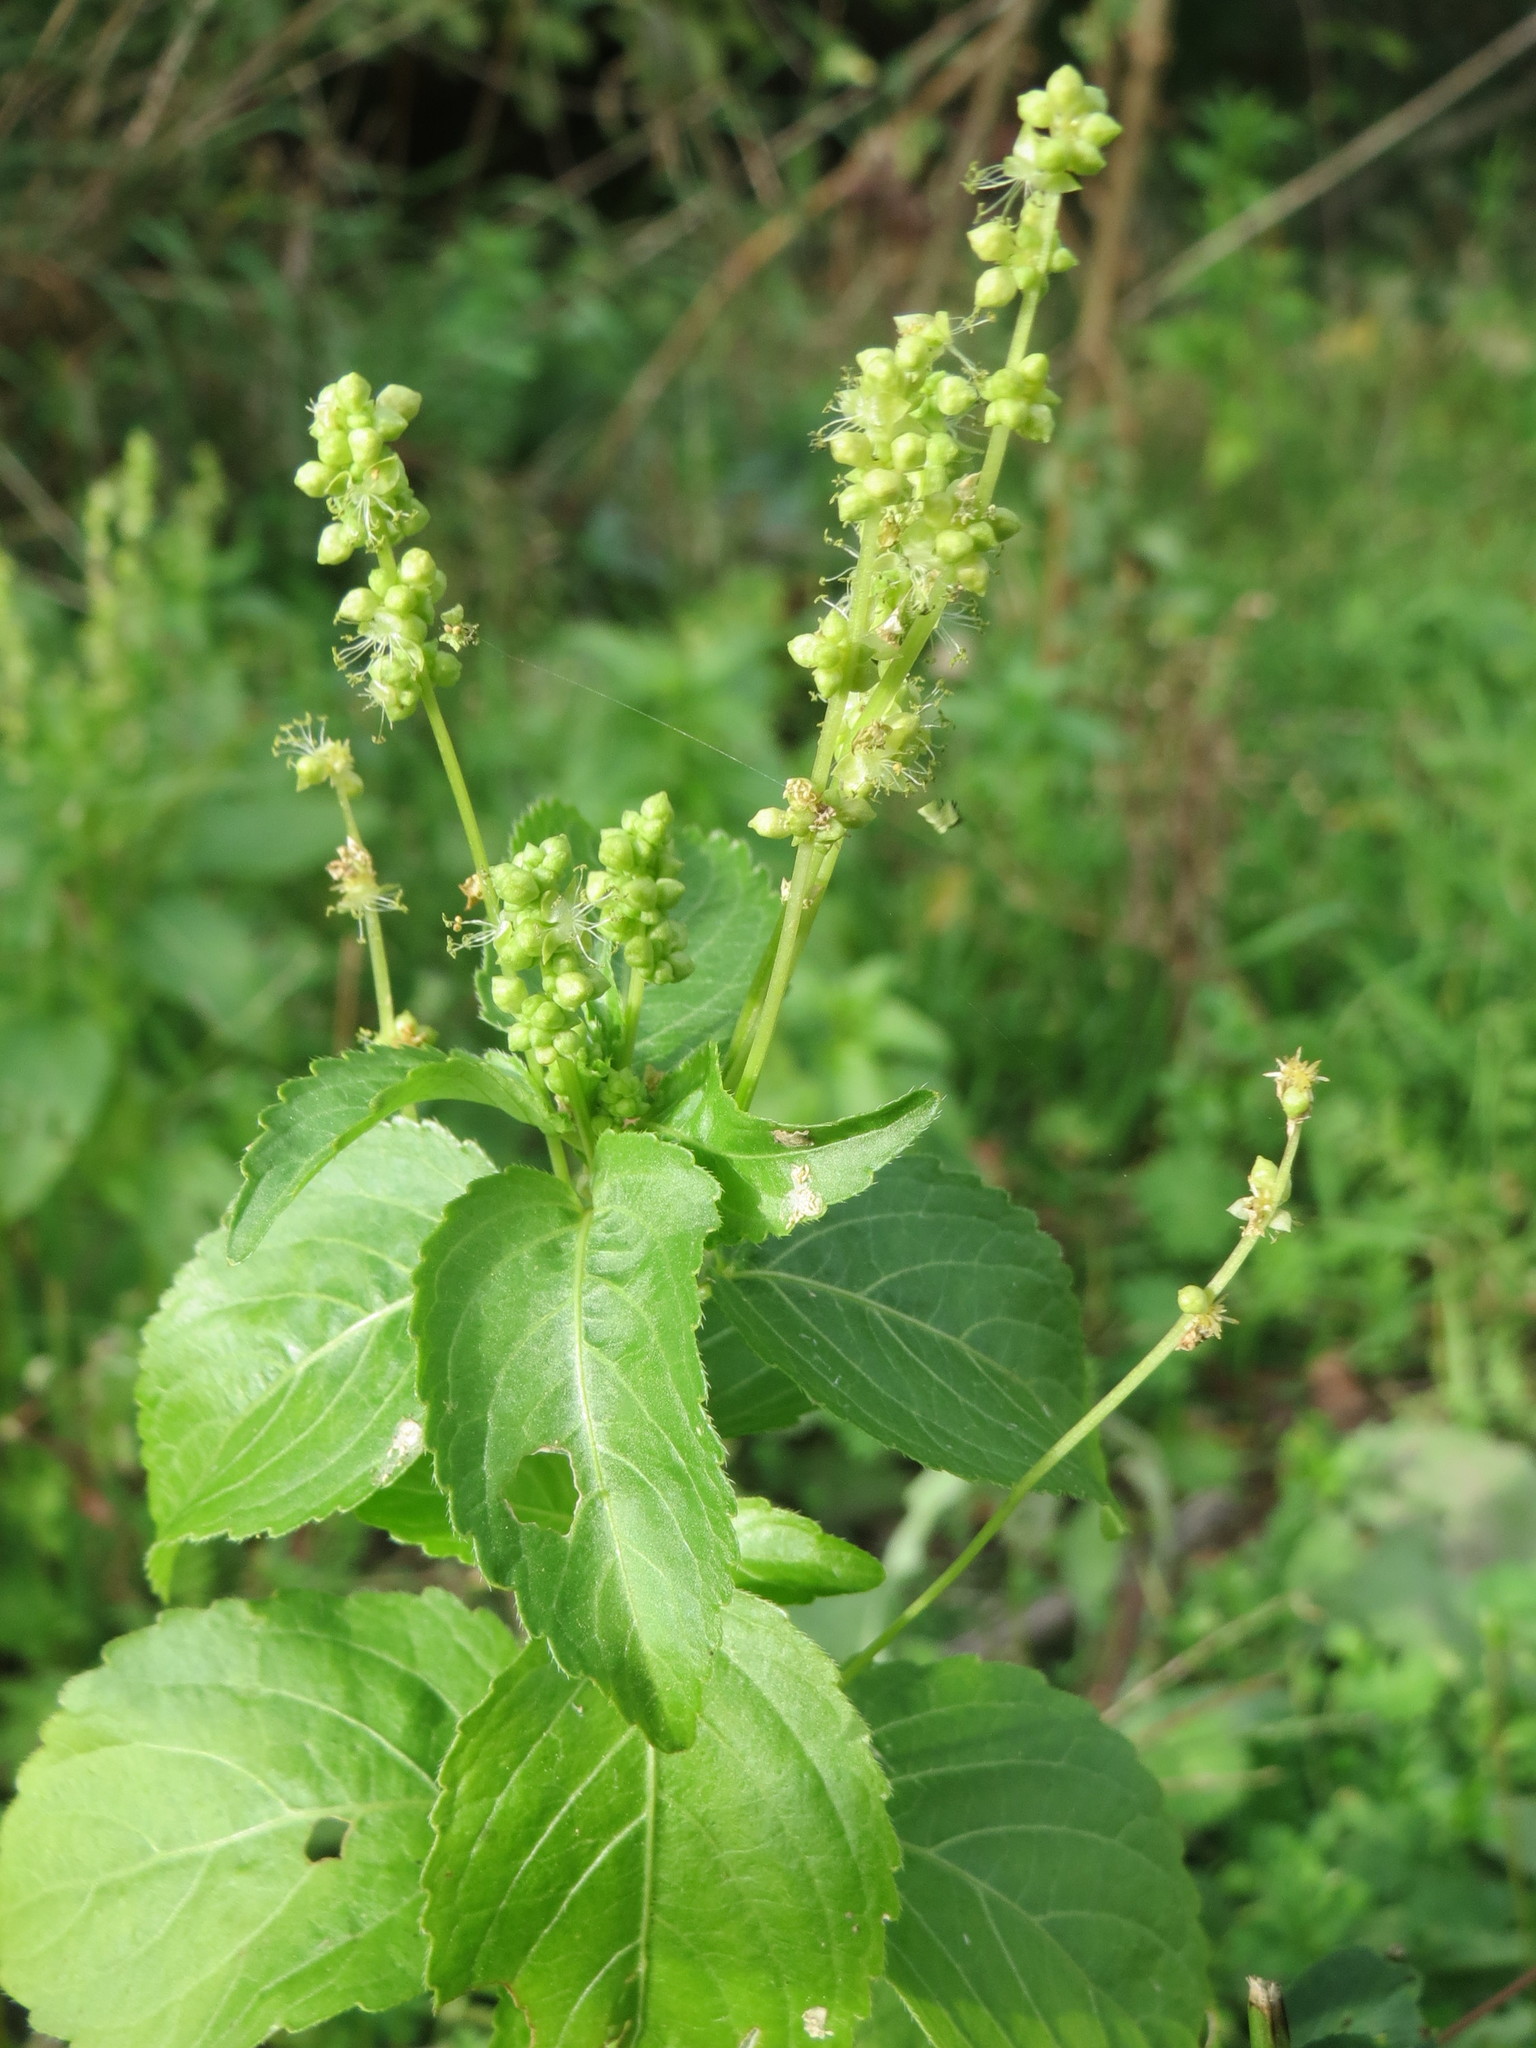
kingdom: Plantae
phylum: Tracheophyta
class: Magnoliopsida
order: Malpighiales
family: Euphorbiaceae
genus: Mercurialis
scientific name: Mercurialis annua
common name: Annual mercury
